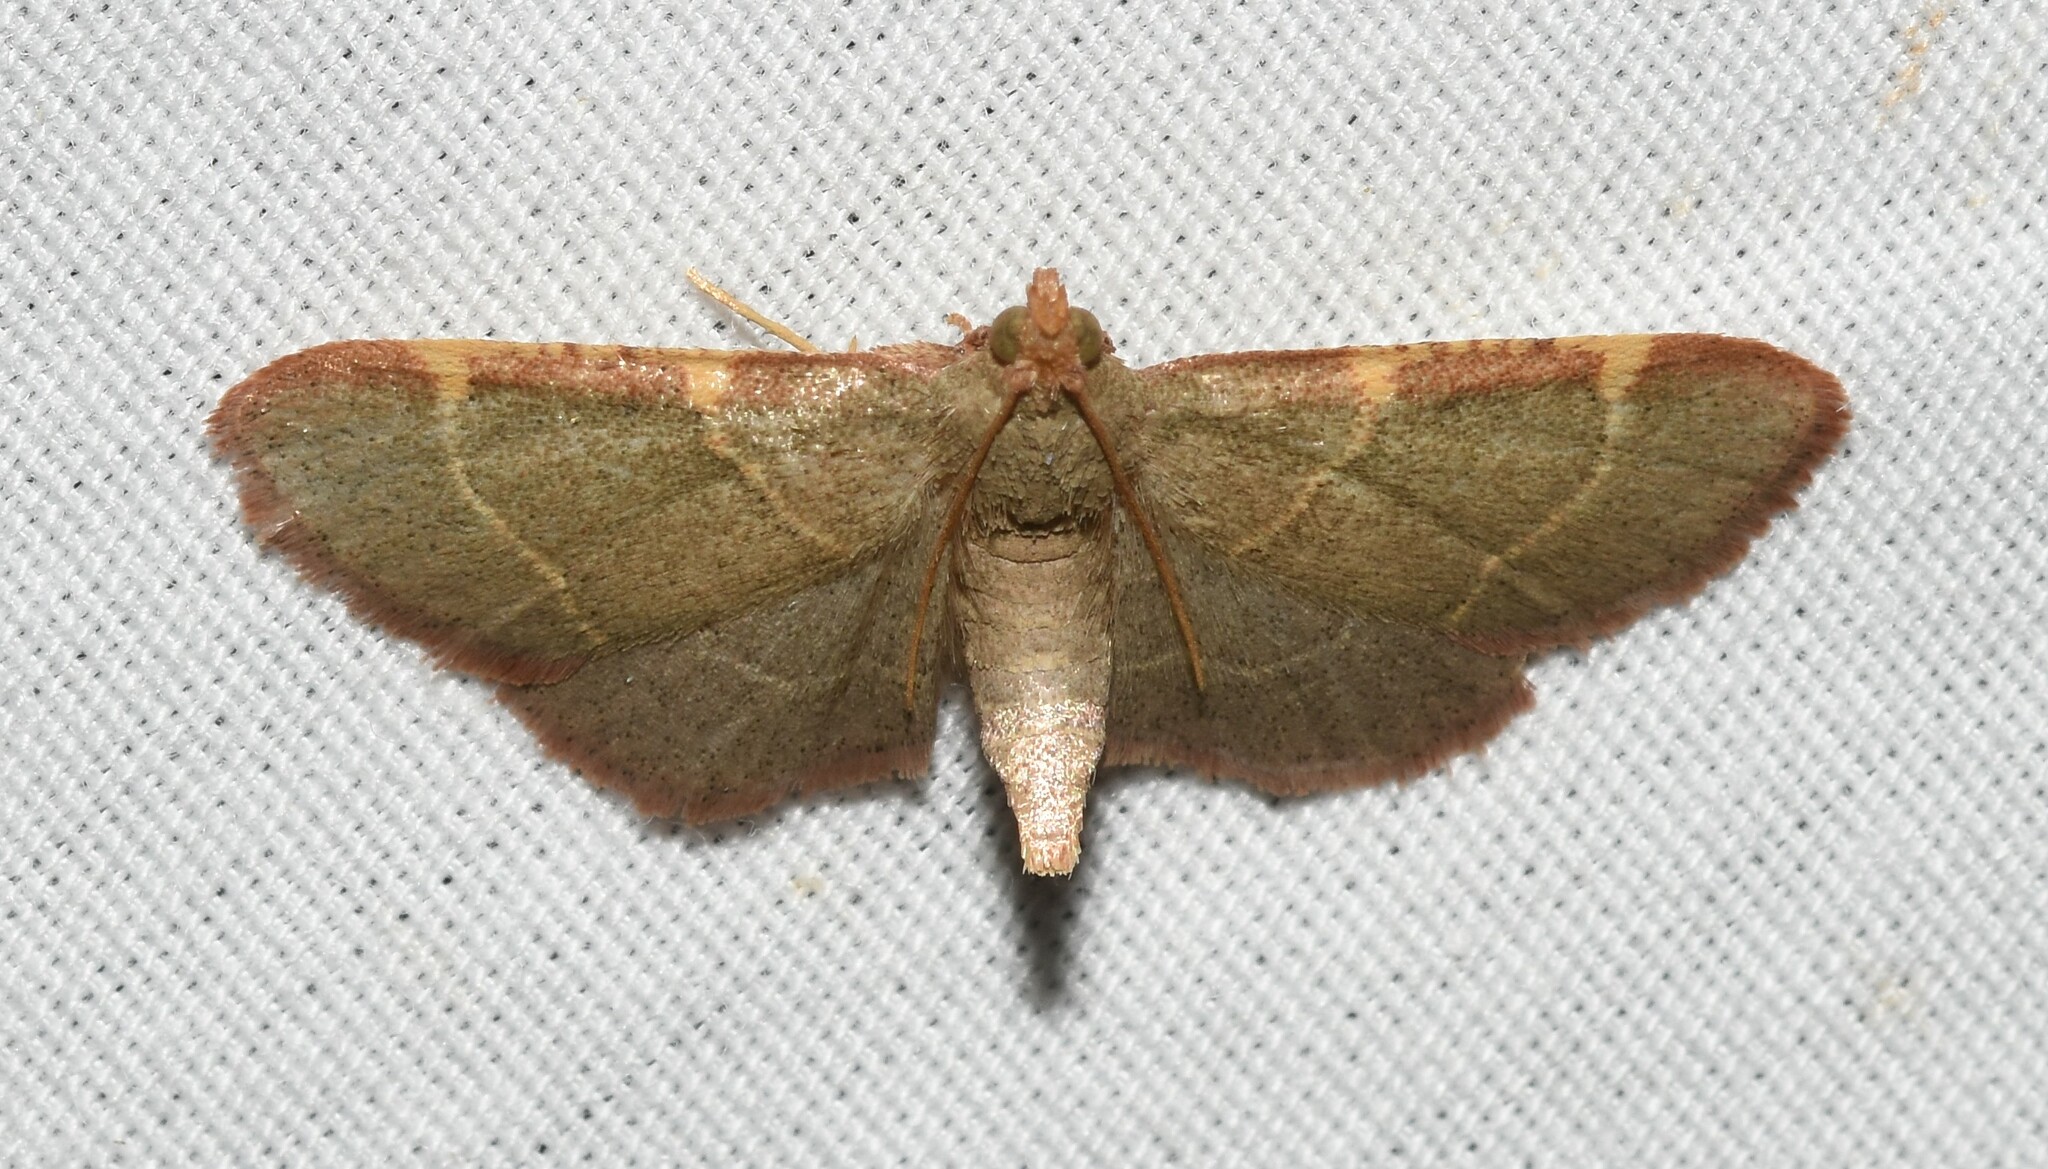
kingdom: Animalia
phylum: Arthropoda
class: Insecta
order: Lepidoptera
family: Pyralidae
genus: Hypsopygia
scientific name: Hypsopygia binodulalis
